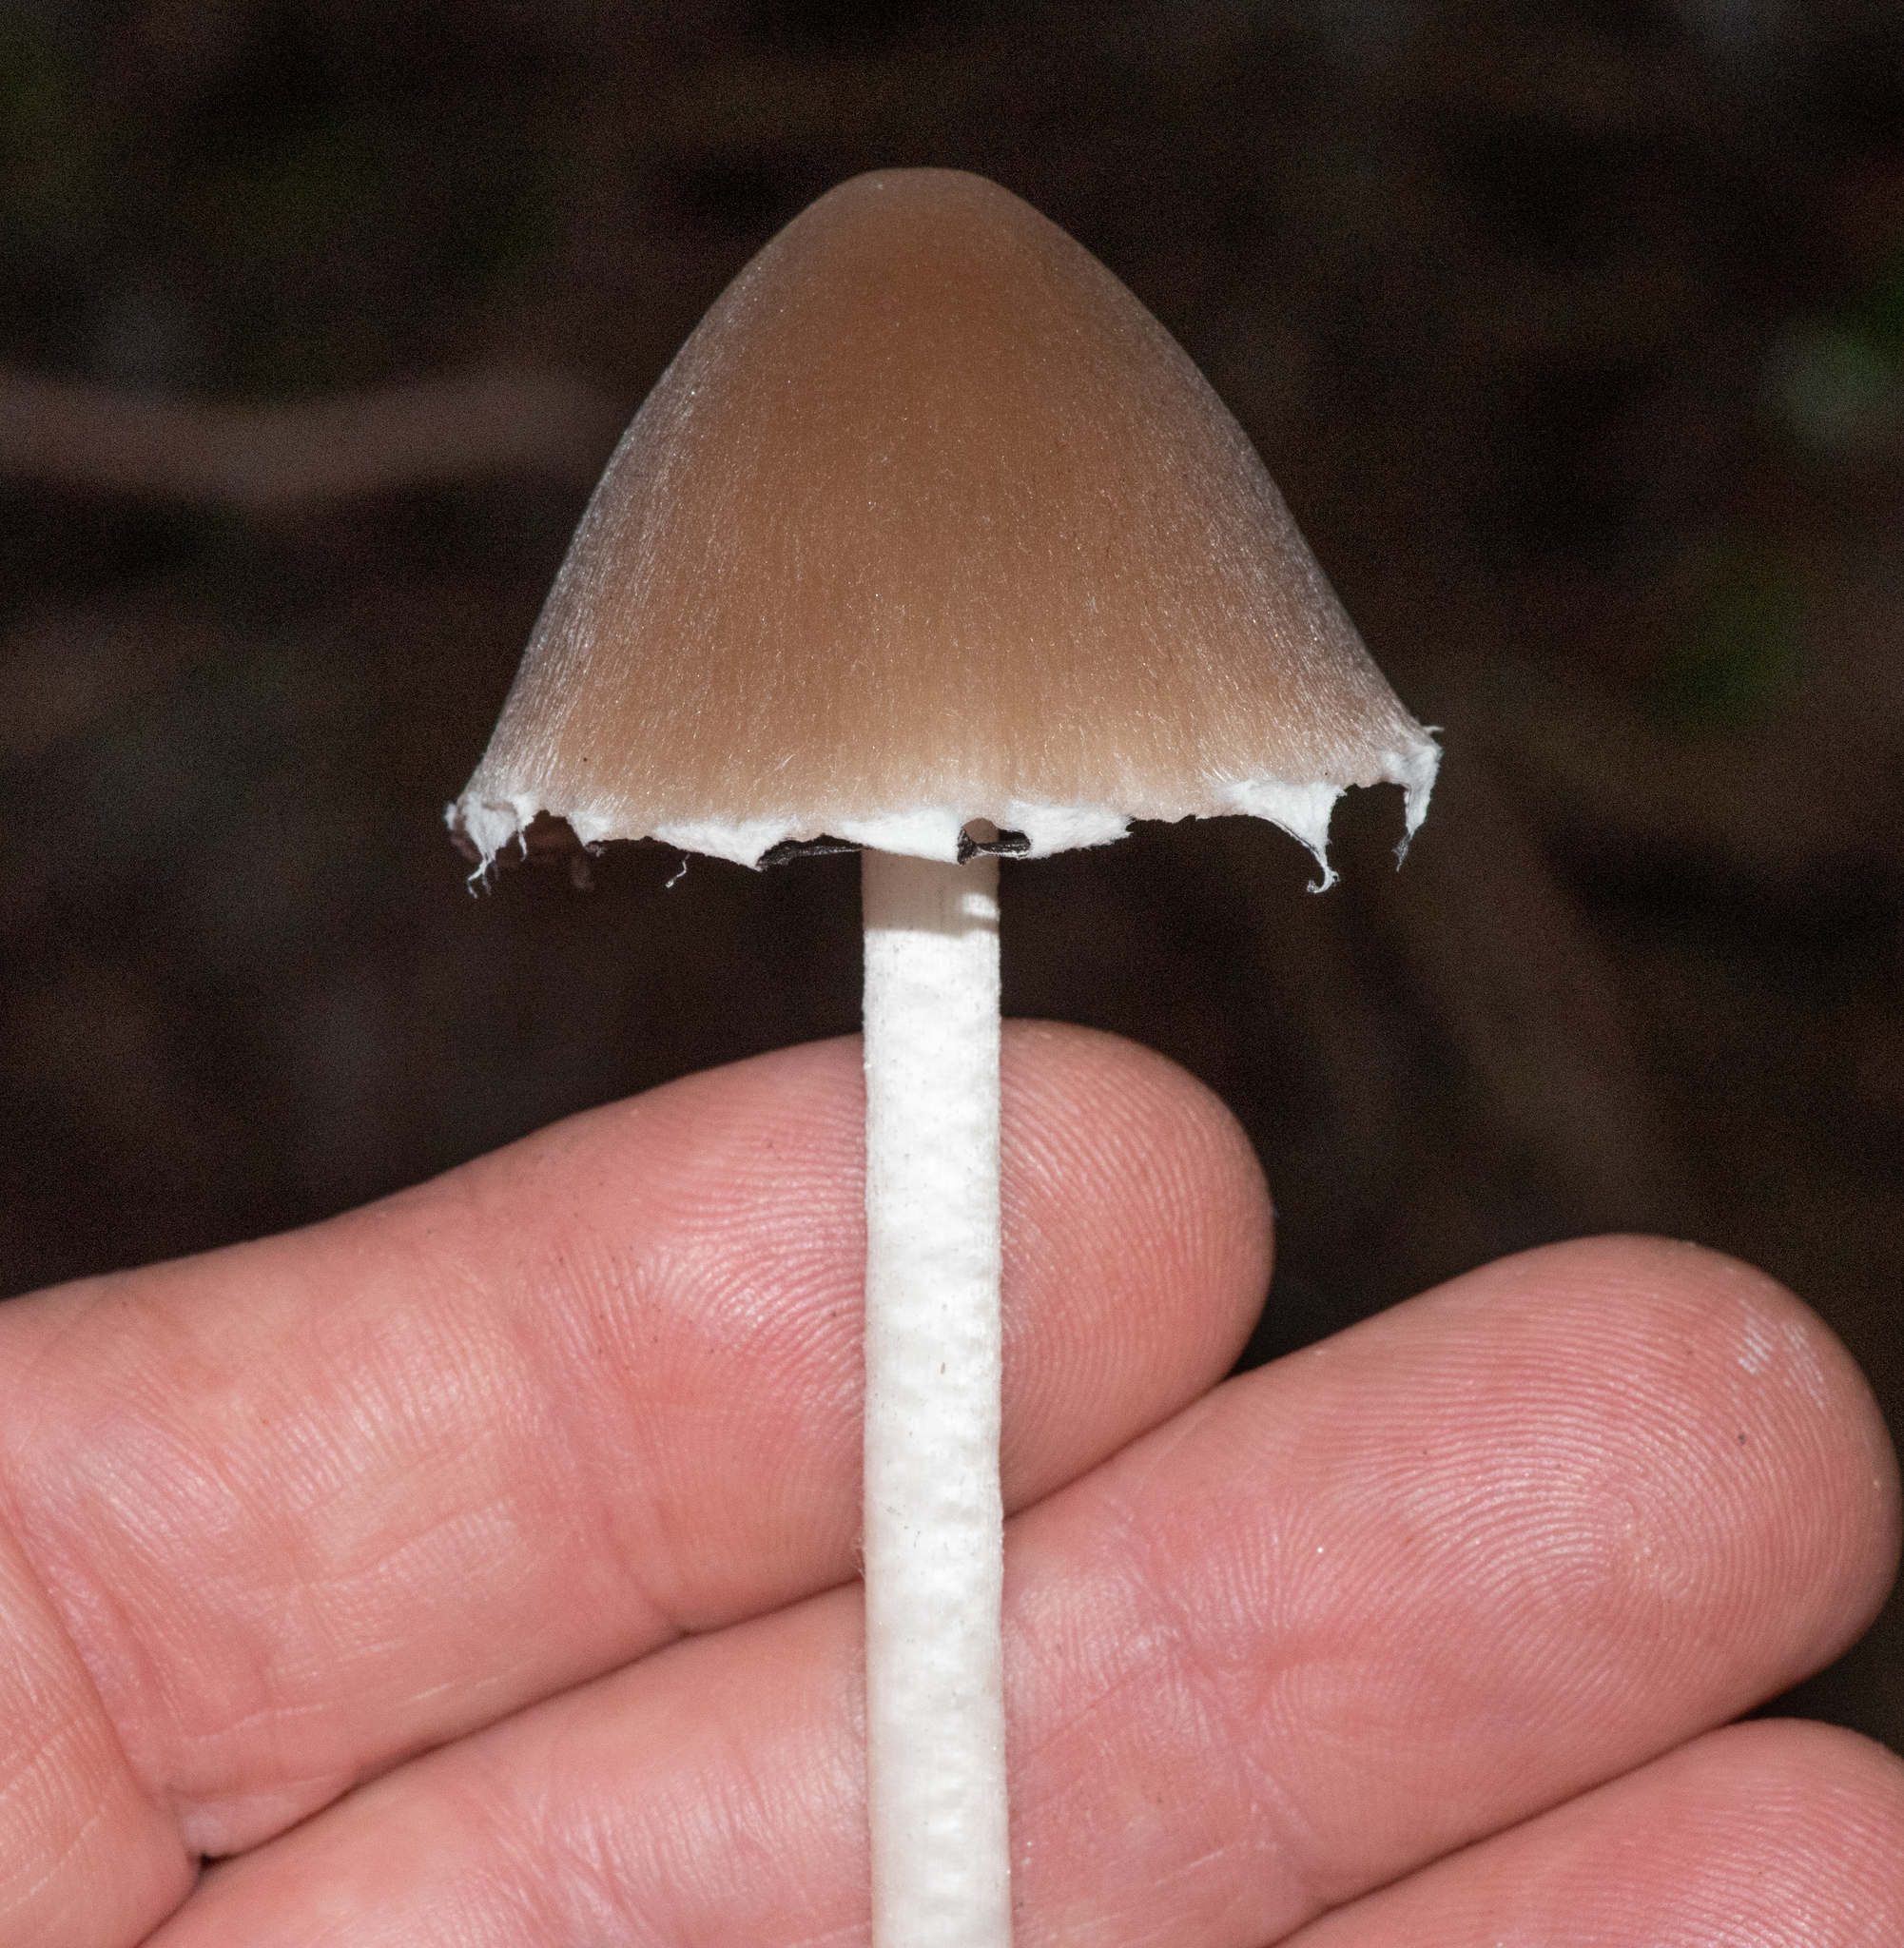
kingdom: Fungi
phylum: Basidiomycota
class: Agaricomycetes
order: Agaricales
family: Psathyrellaceae
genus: Psathyrella
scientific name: Psathyrella longipes
